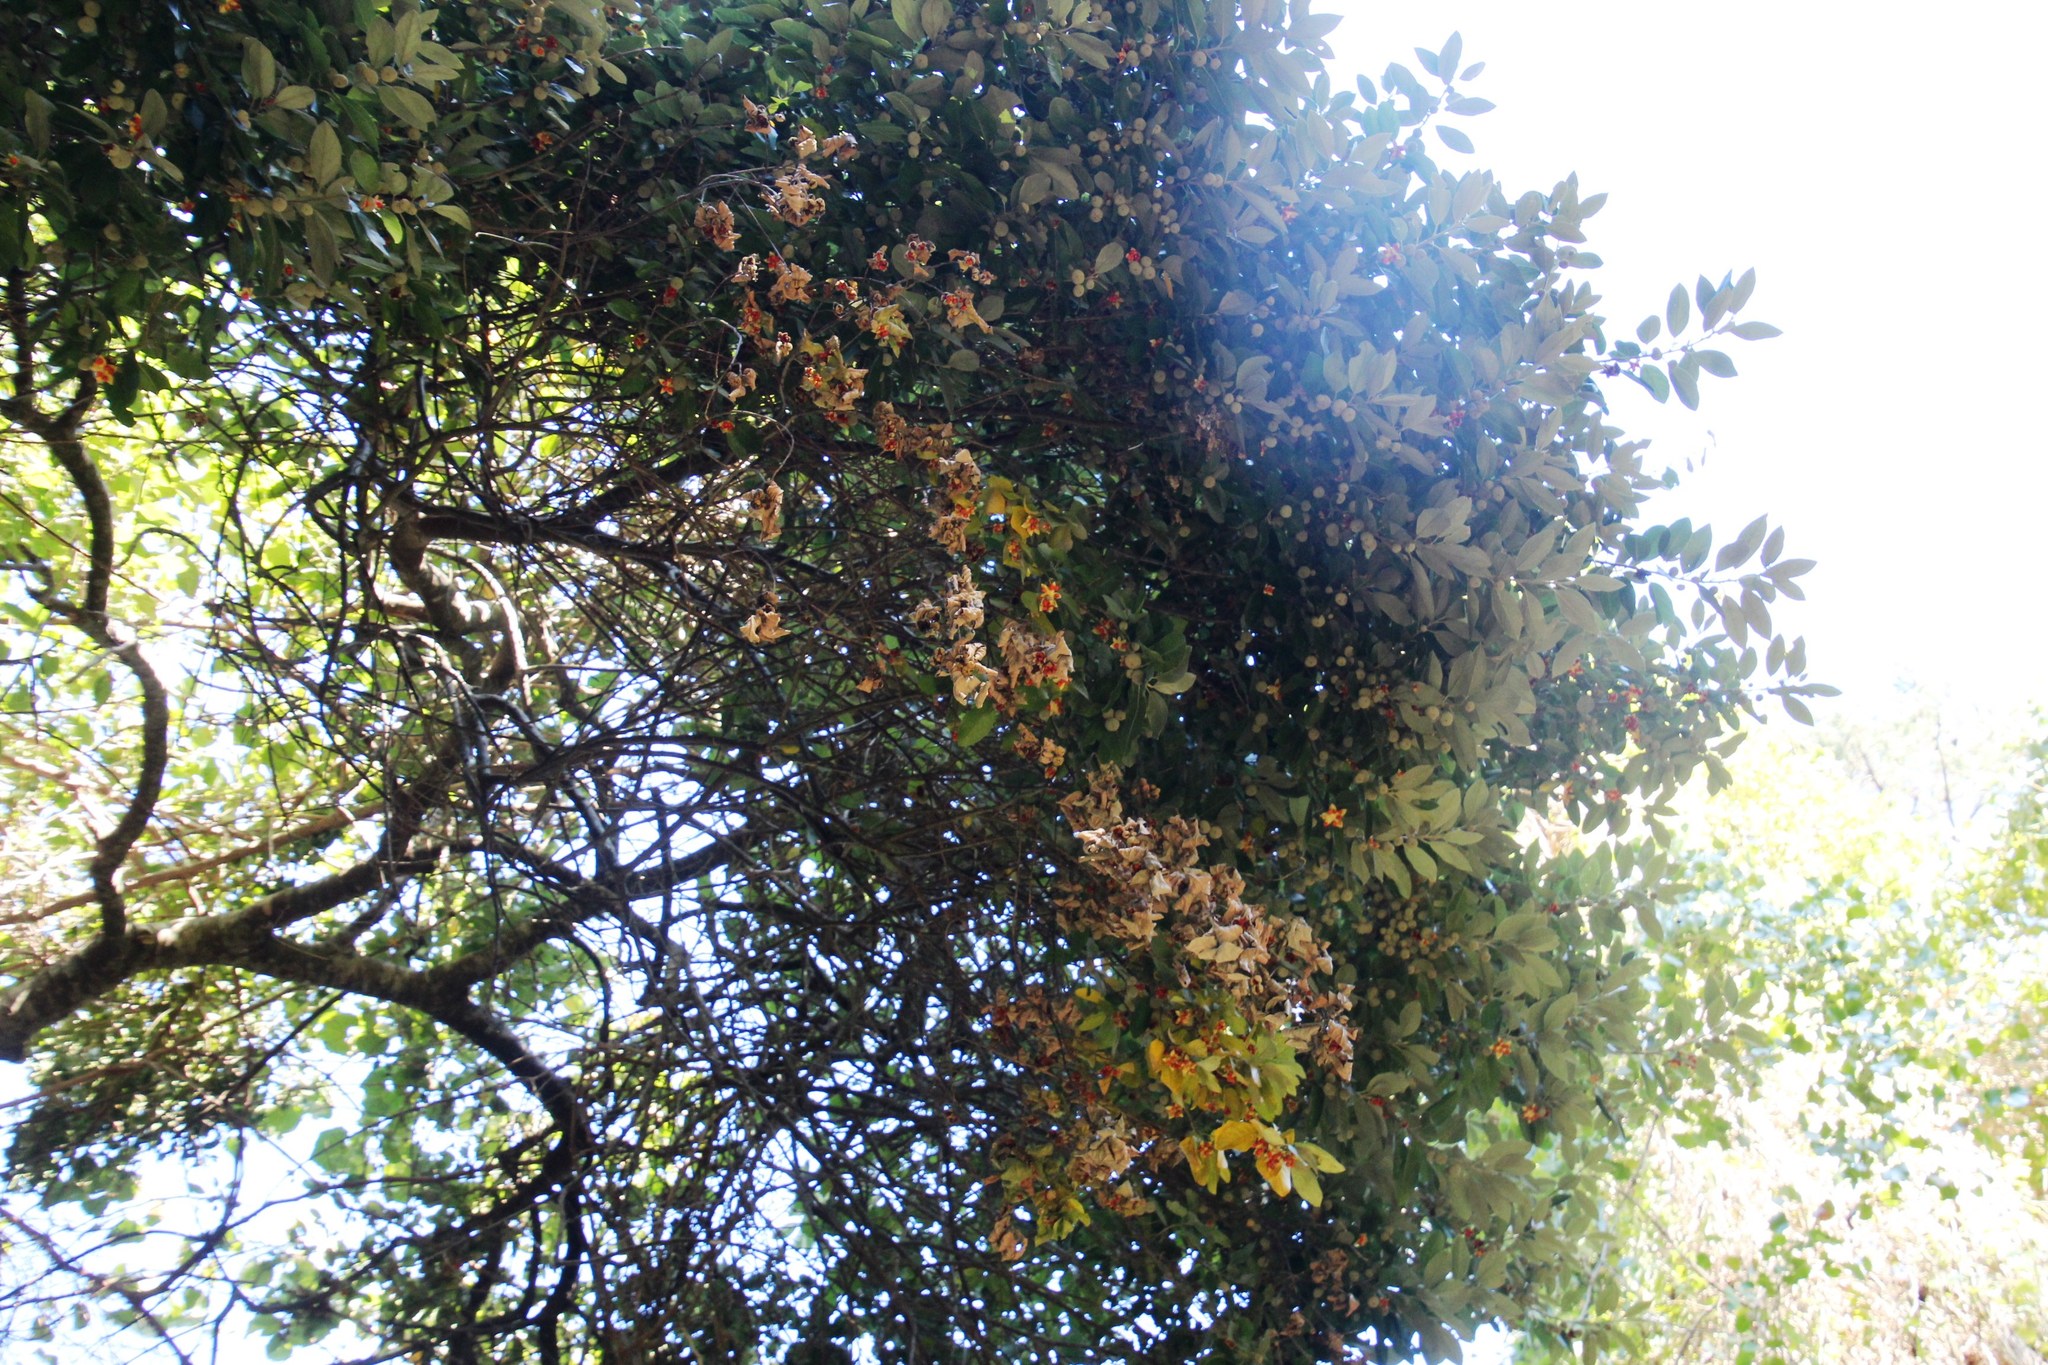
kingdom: Plantae
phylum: Tracheophyta
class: Magnoliopsida
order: Malpighiales
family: Achariaceae
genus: Kiggelaria
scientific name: Kiggelaria africana
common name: Wild peach
